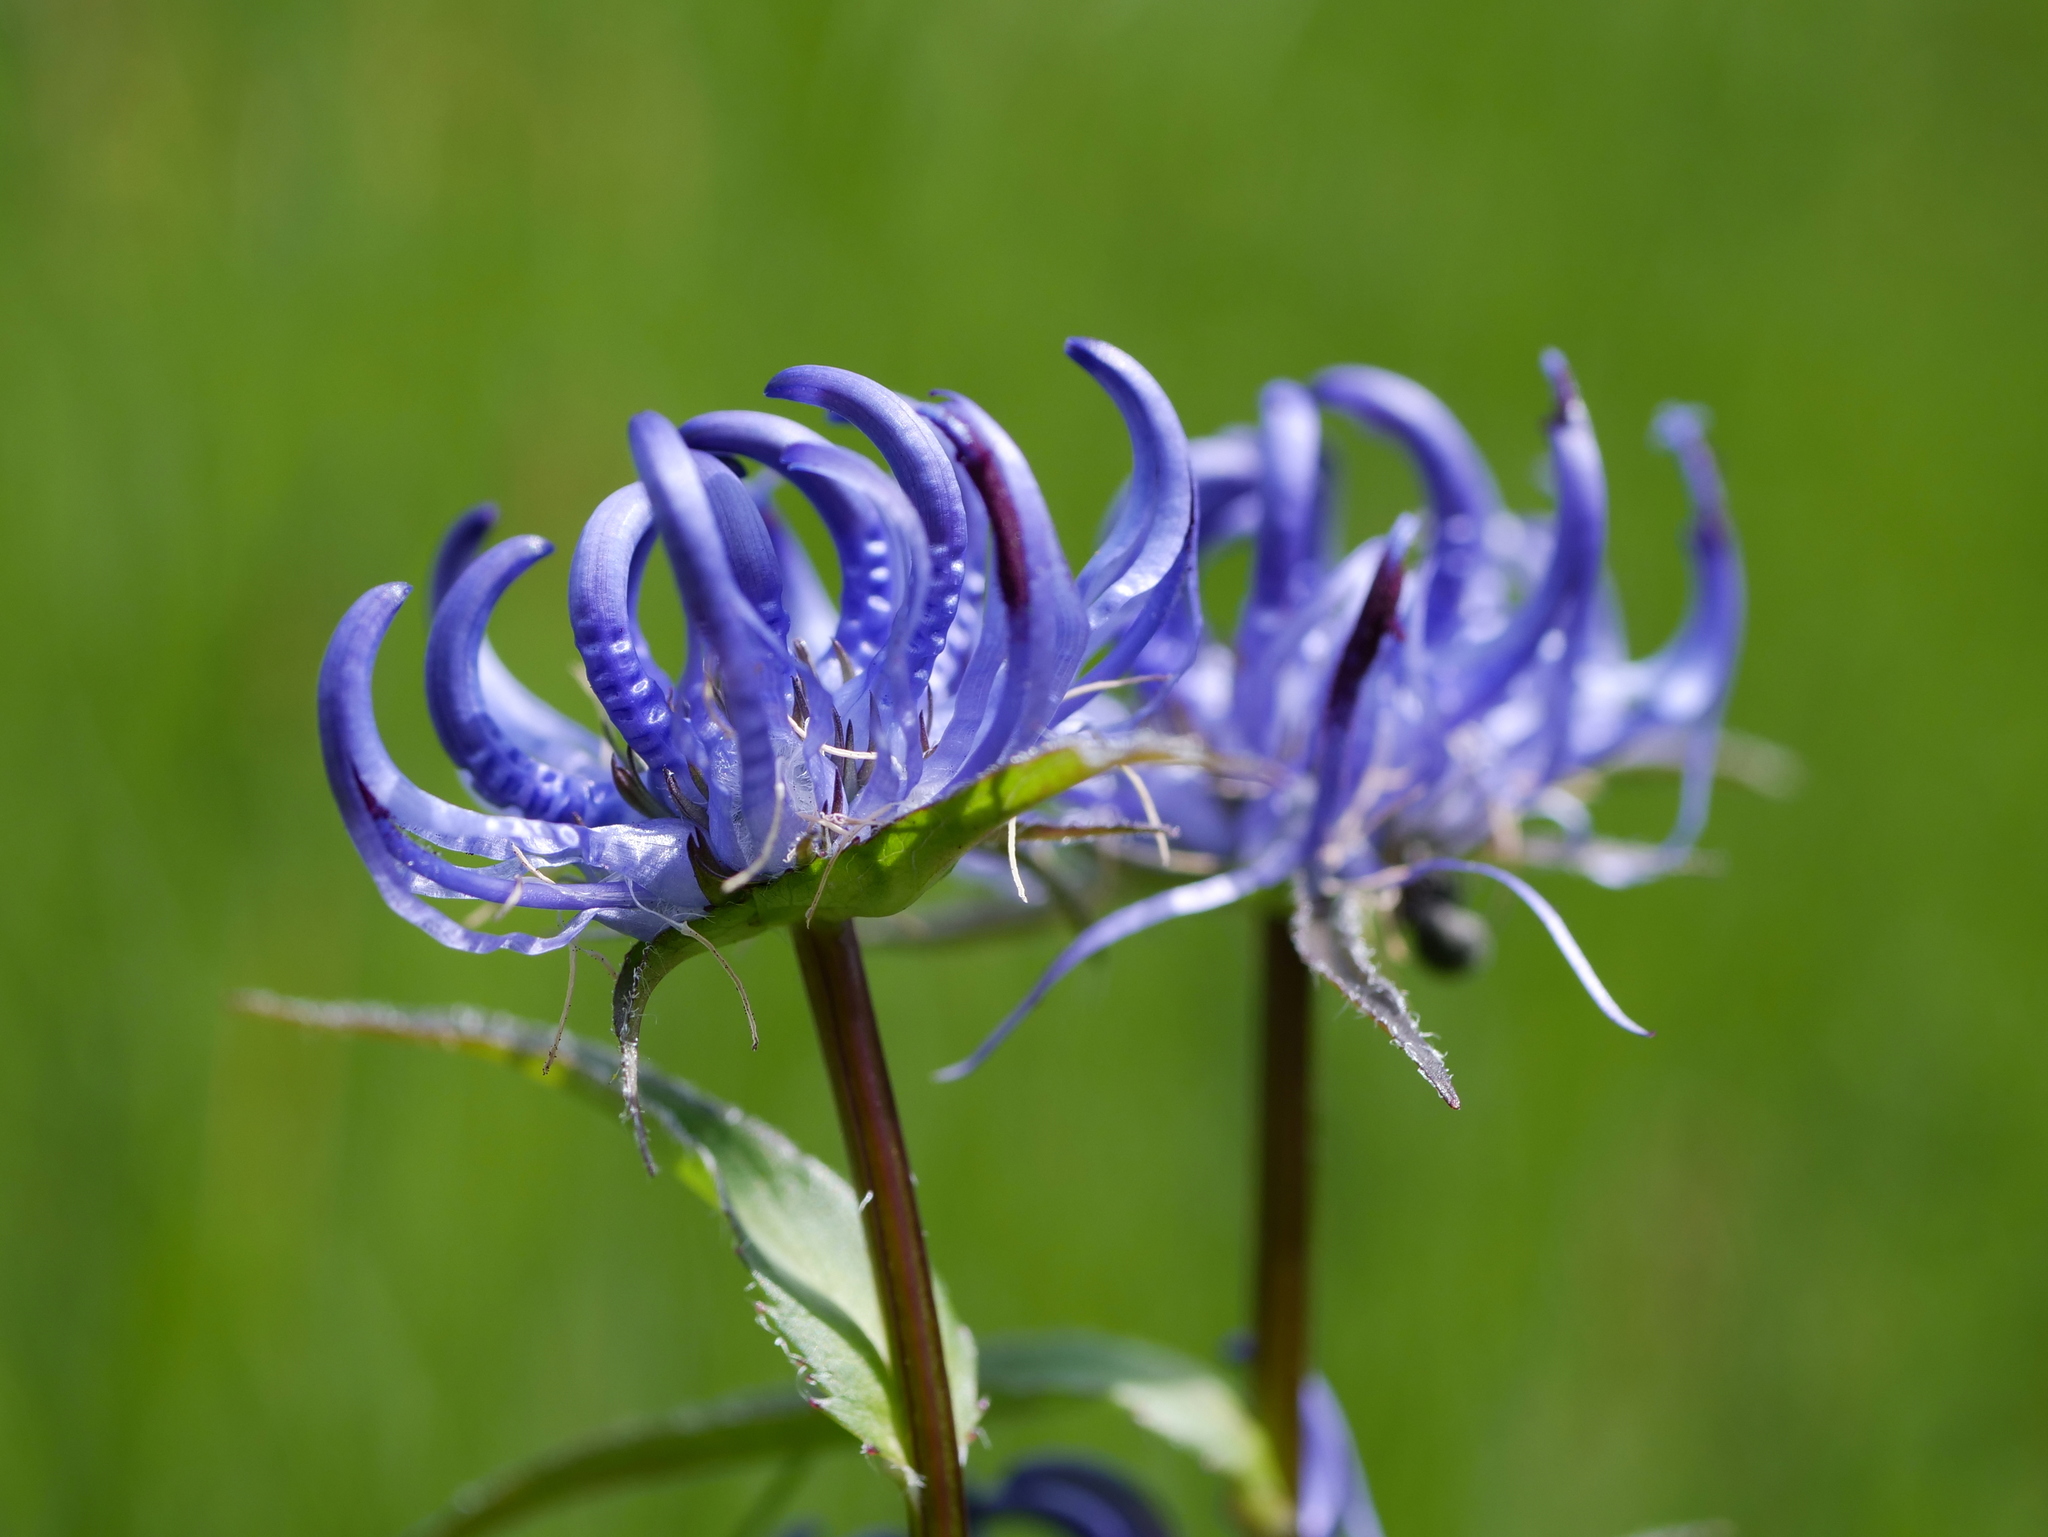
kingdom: Plantae
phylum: Tracheophyta
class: Magnoliopsida
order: Asterales
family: Campanulaceae
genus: Phyteuma
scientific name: Phyteuma orbiculare
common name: Round-headed rampion
